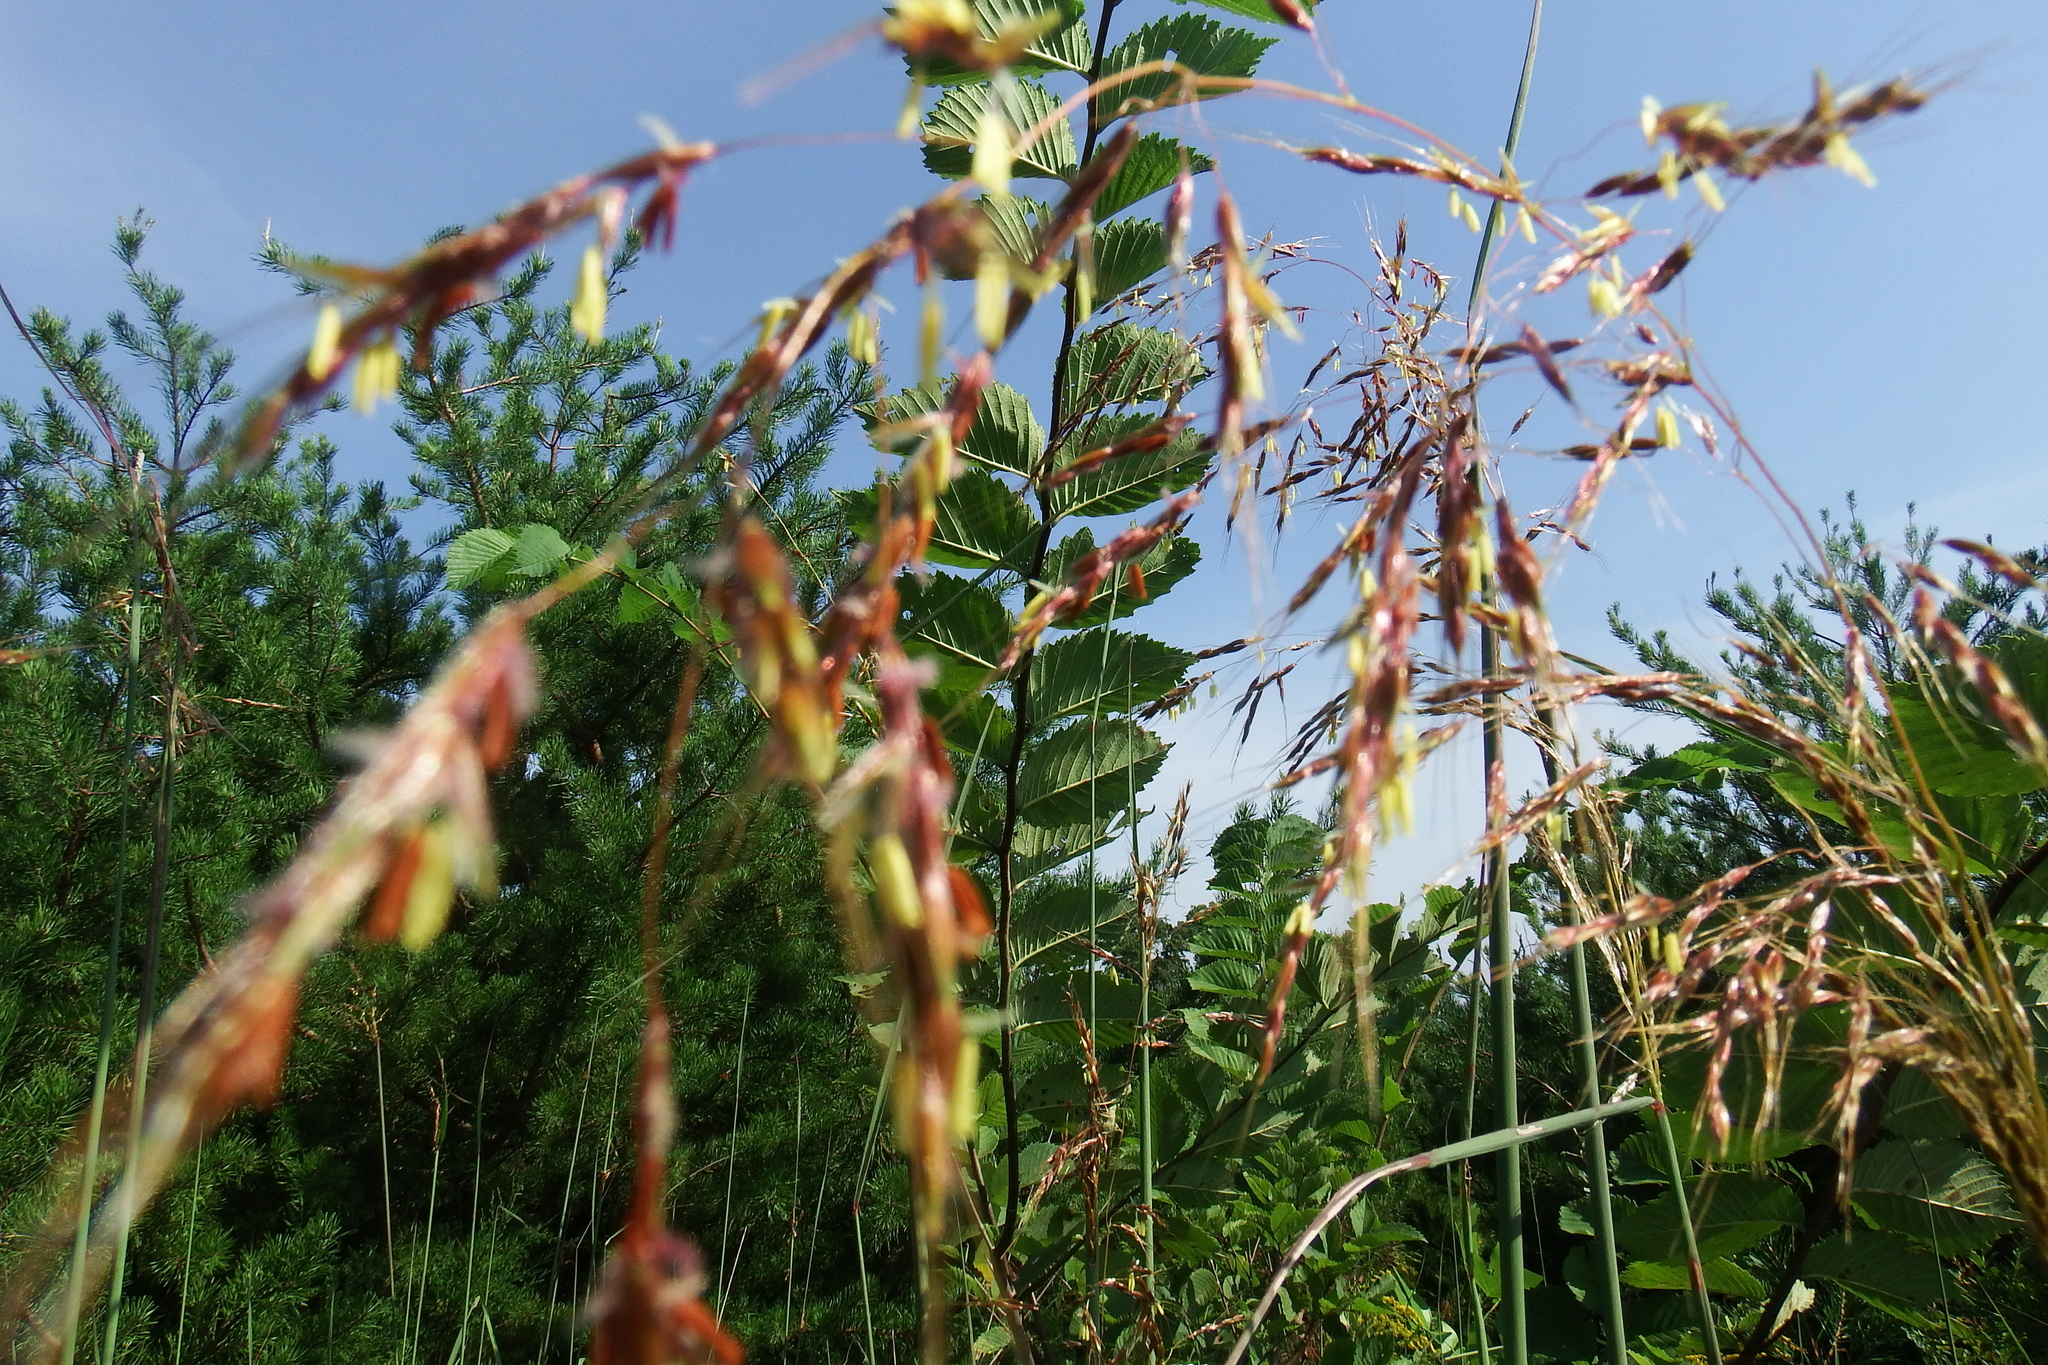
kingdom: Plantae
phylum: Tracheophyta
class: Liliopsida
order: Poales
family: Poaceae
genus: Sorghastrum
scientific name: Sorghastrum nutans
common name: Indian grass
